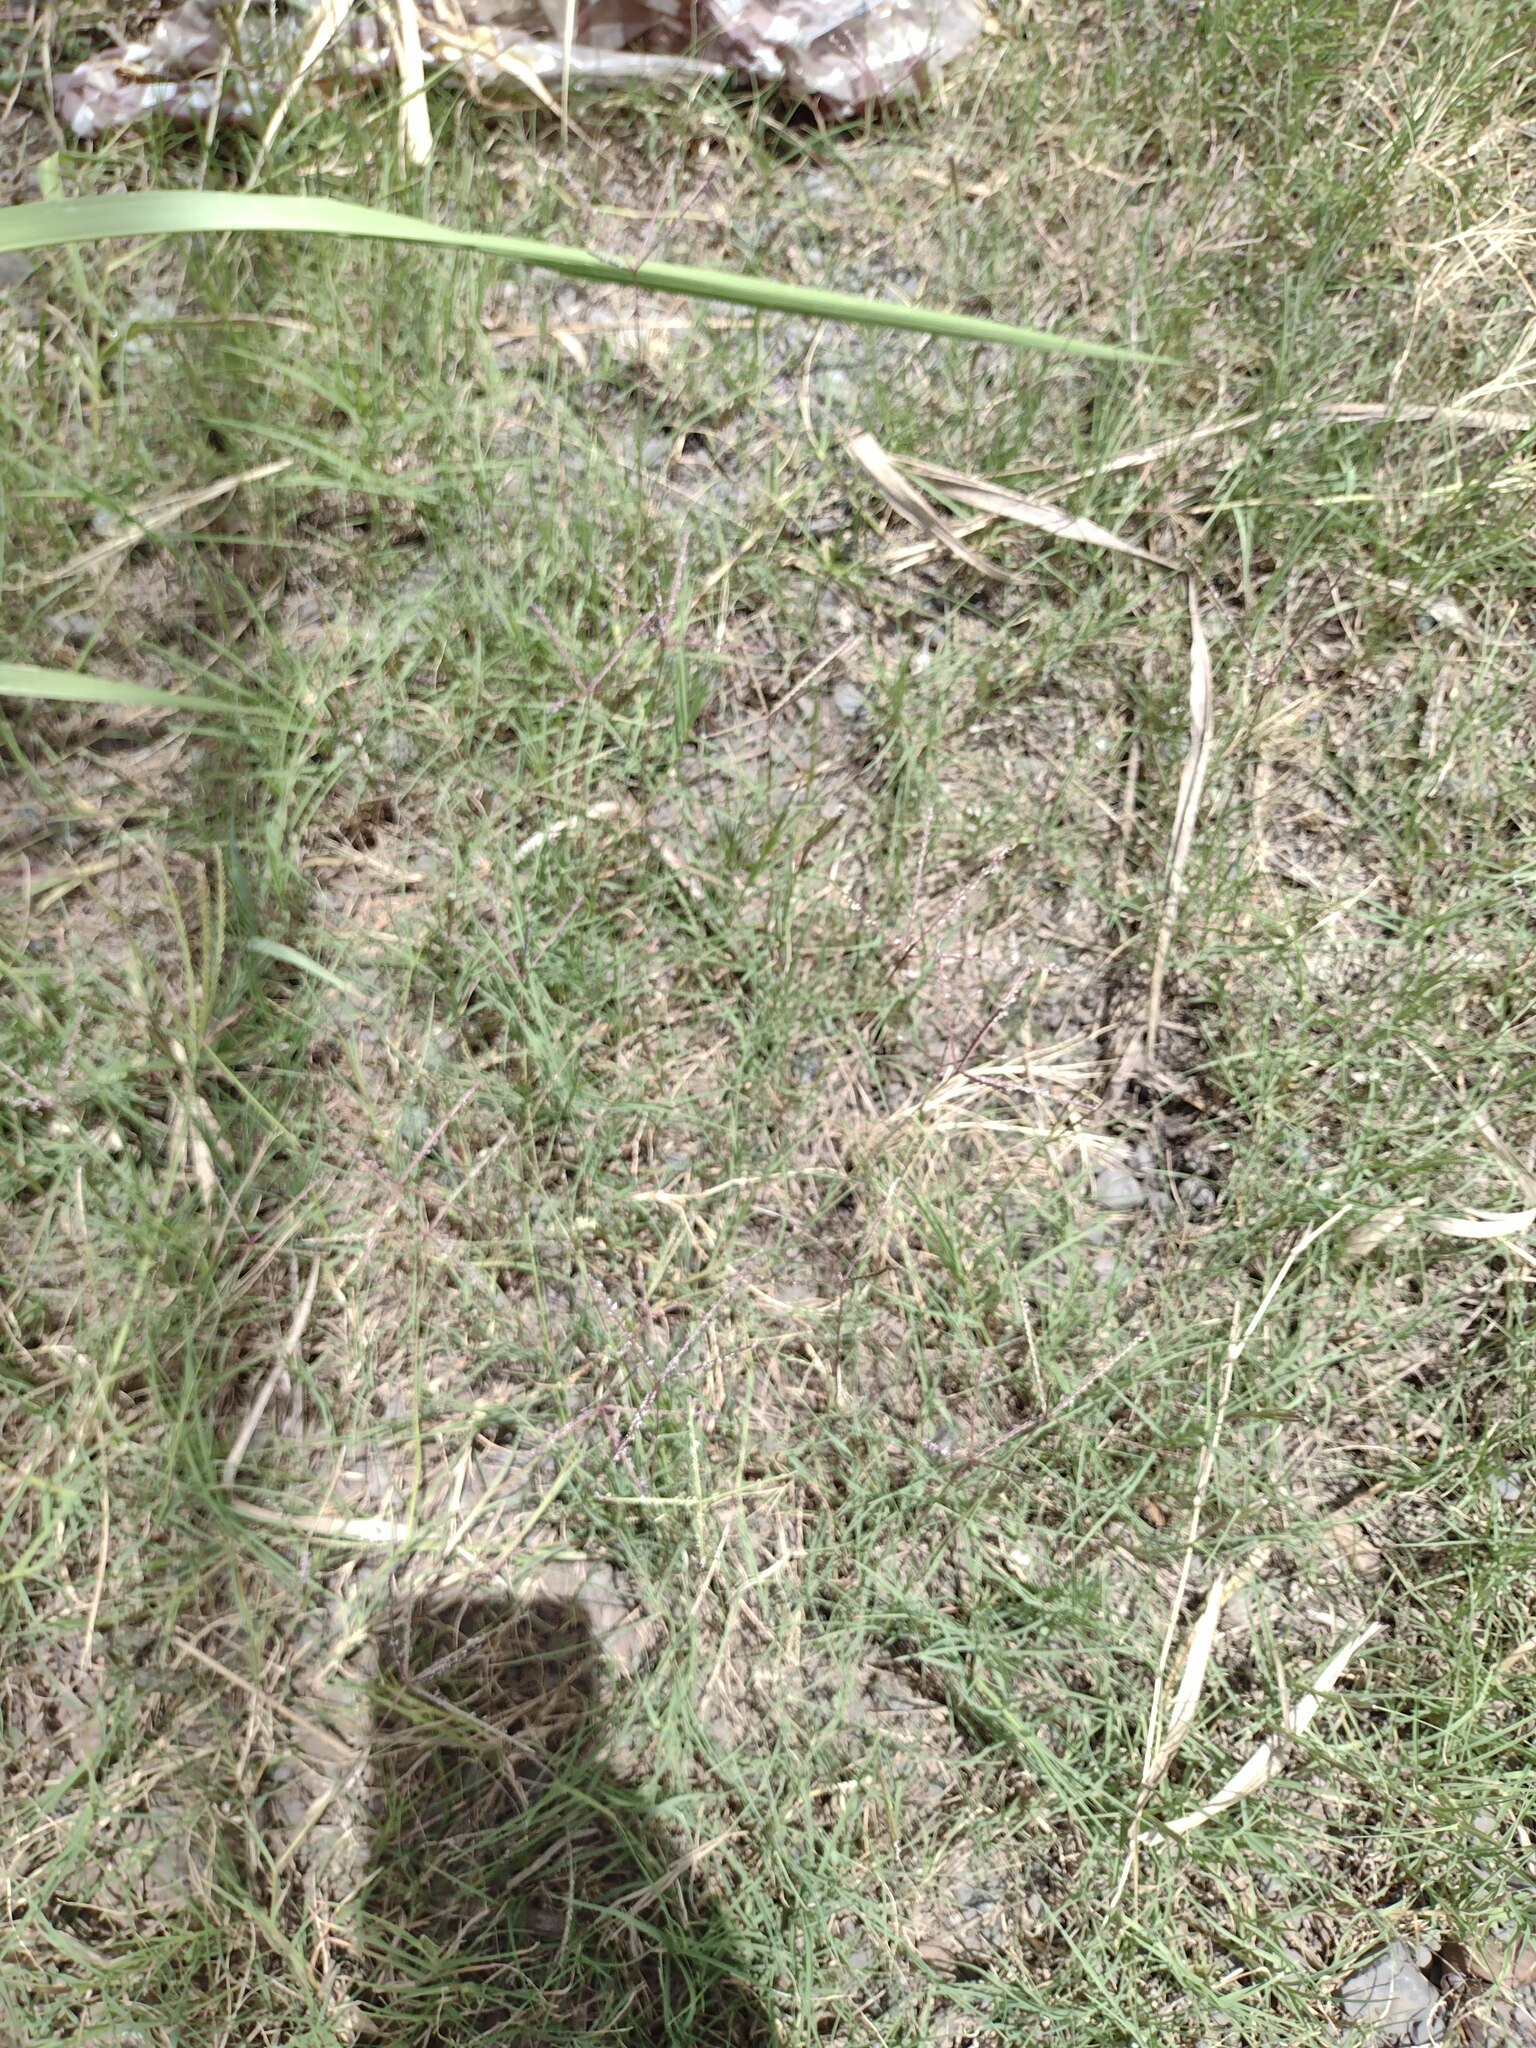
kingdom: Plantae
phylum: Tracheophyta
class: Liliopsida
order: Poales
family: Poaceae
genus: Cynodon
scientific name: Cynodon dactylon
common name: Bermuda grass
